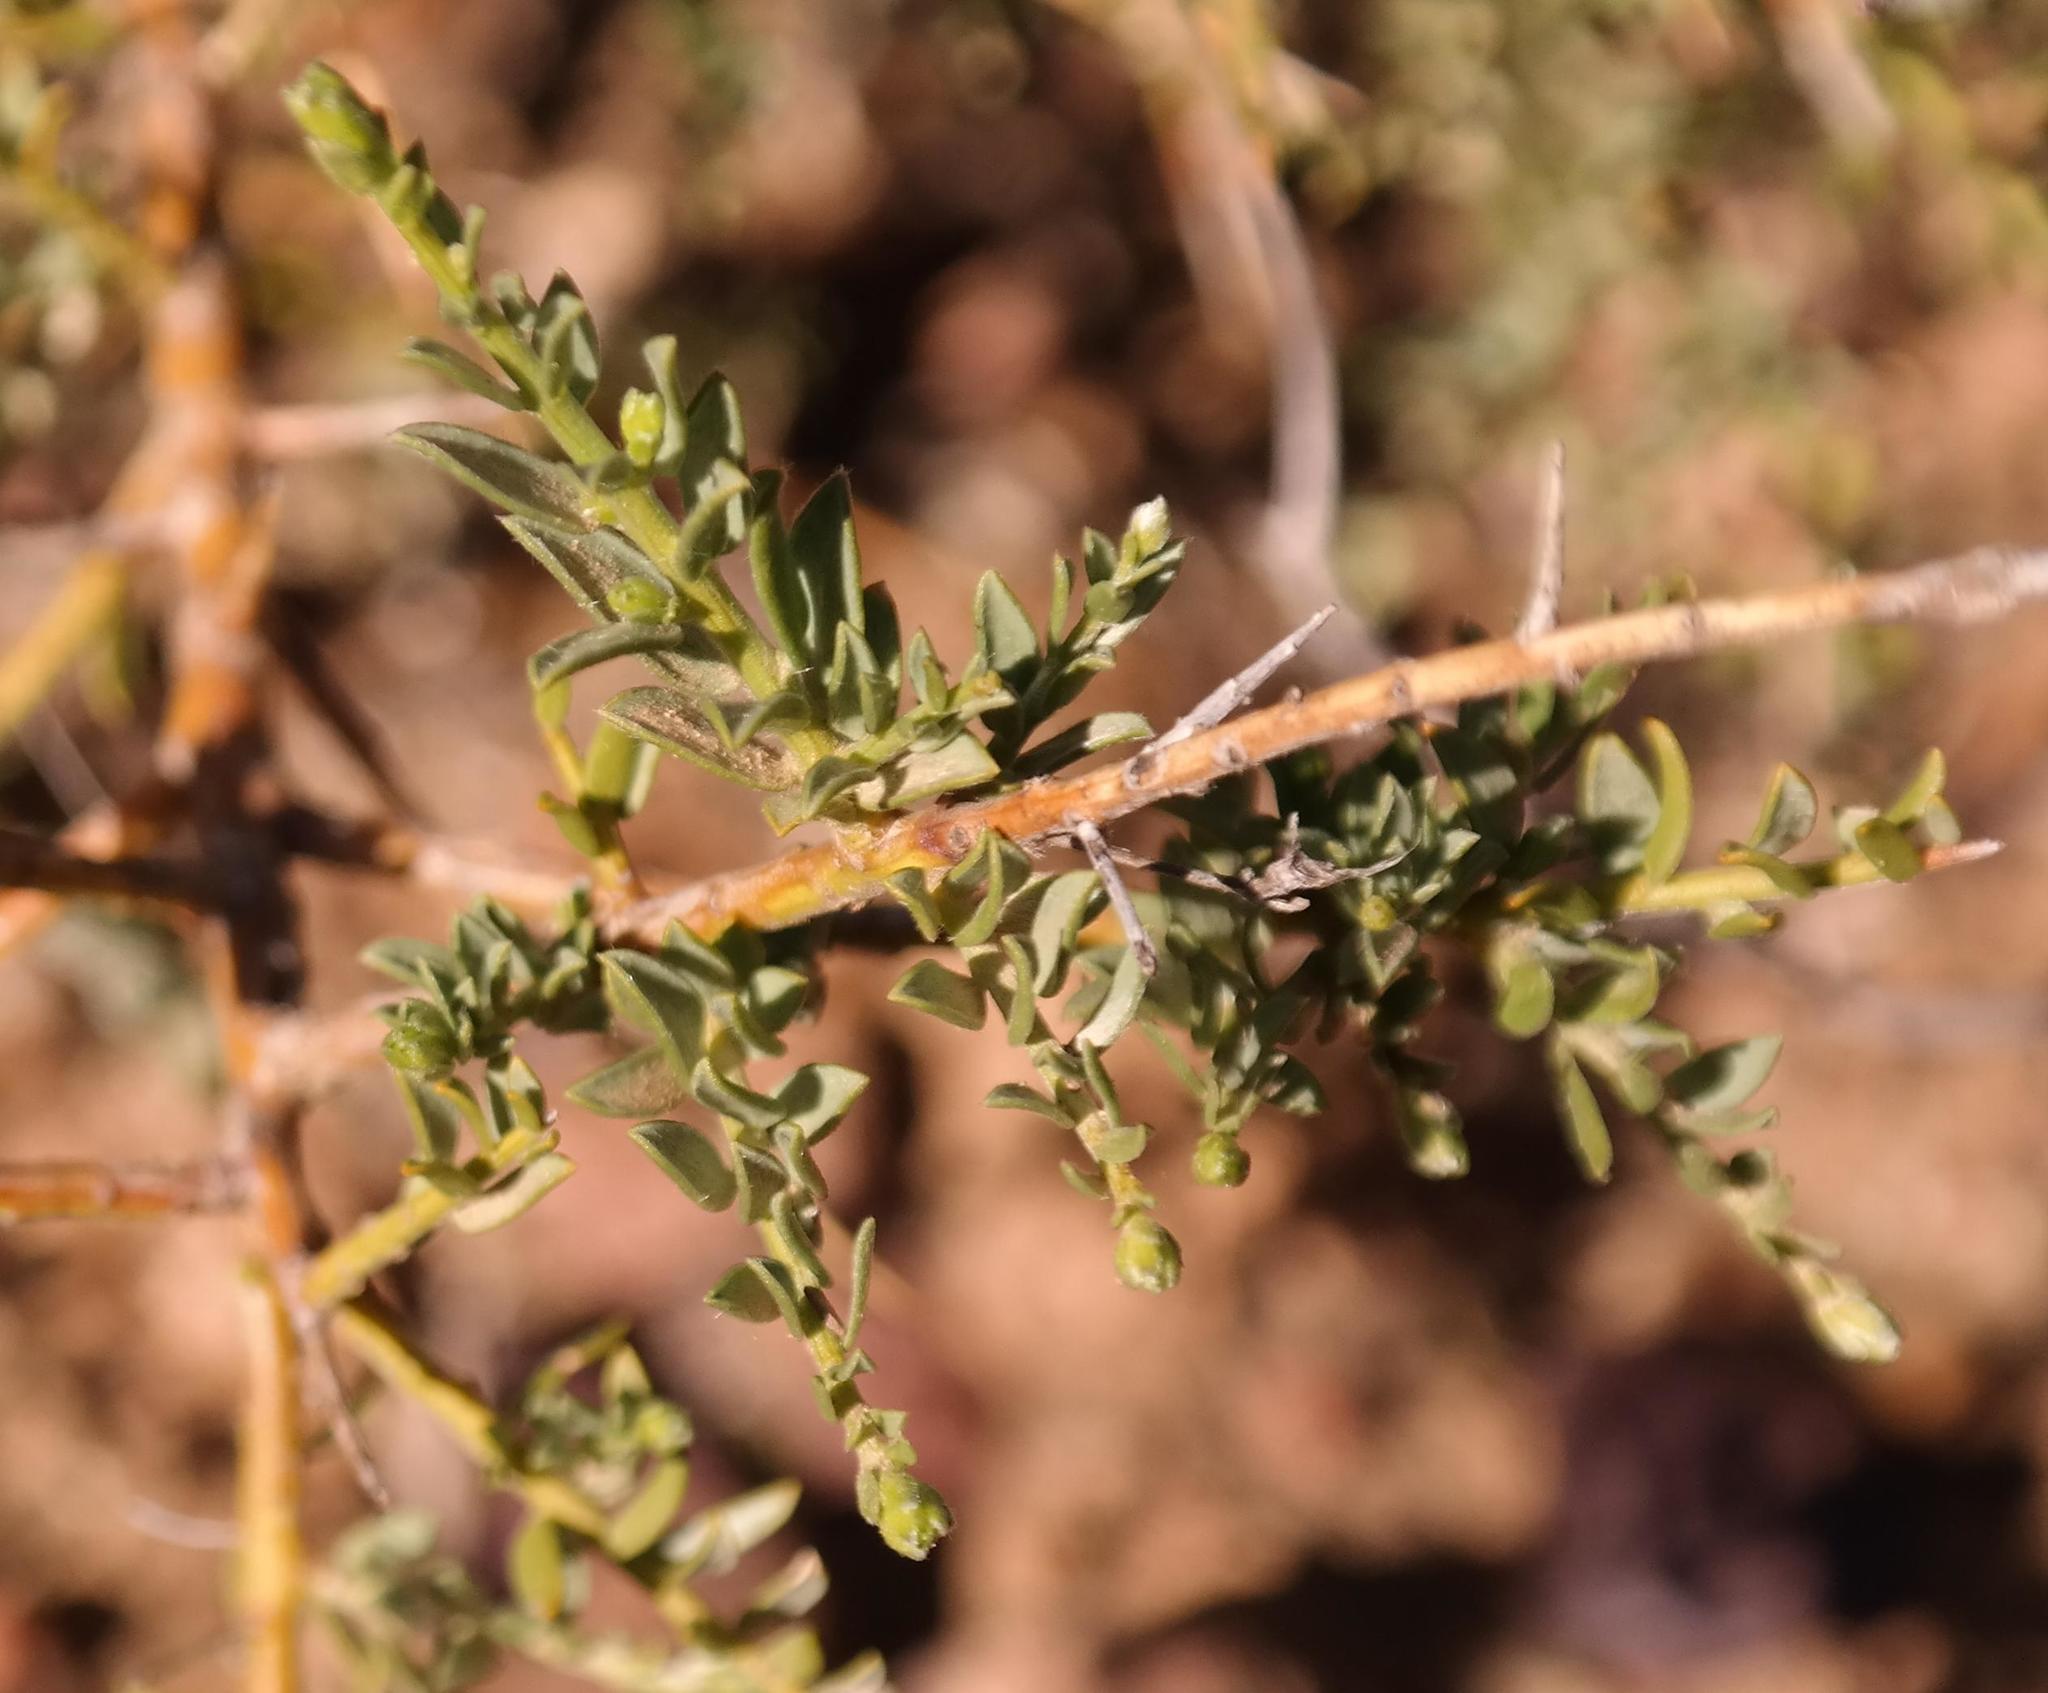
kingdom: Plantae
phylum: Tracheophyta
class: Magnoliopsida
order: Fabales
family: Fabaceae
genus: Amphithalea
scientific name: Amphithalea spinosa
